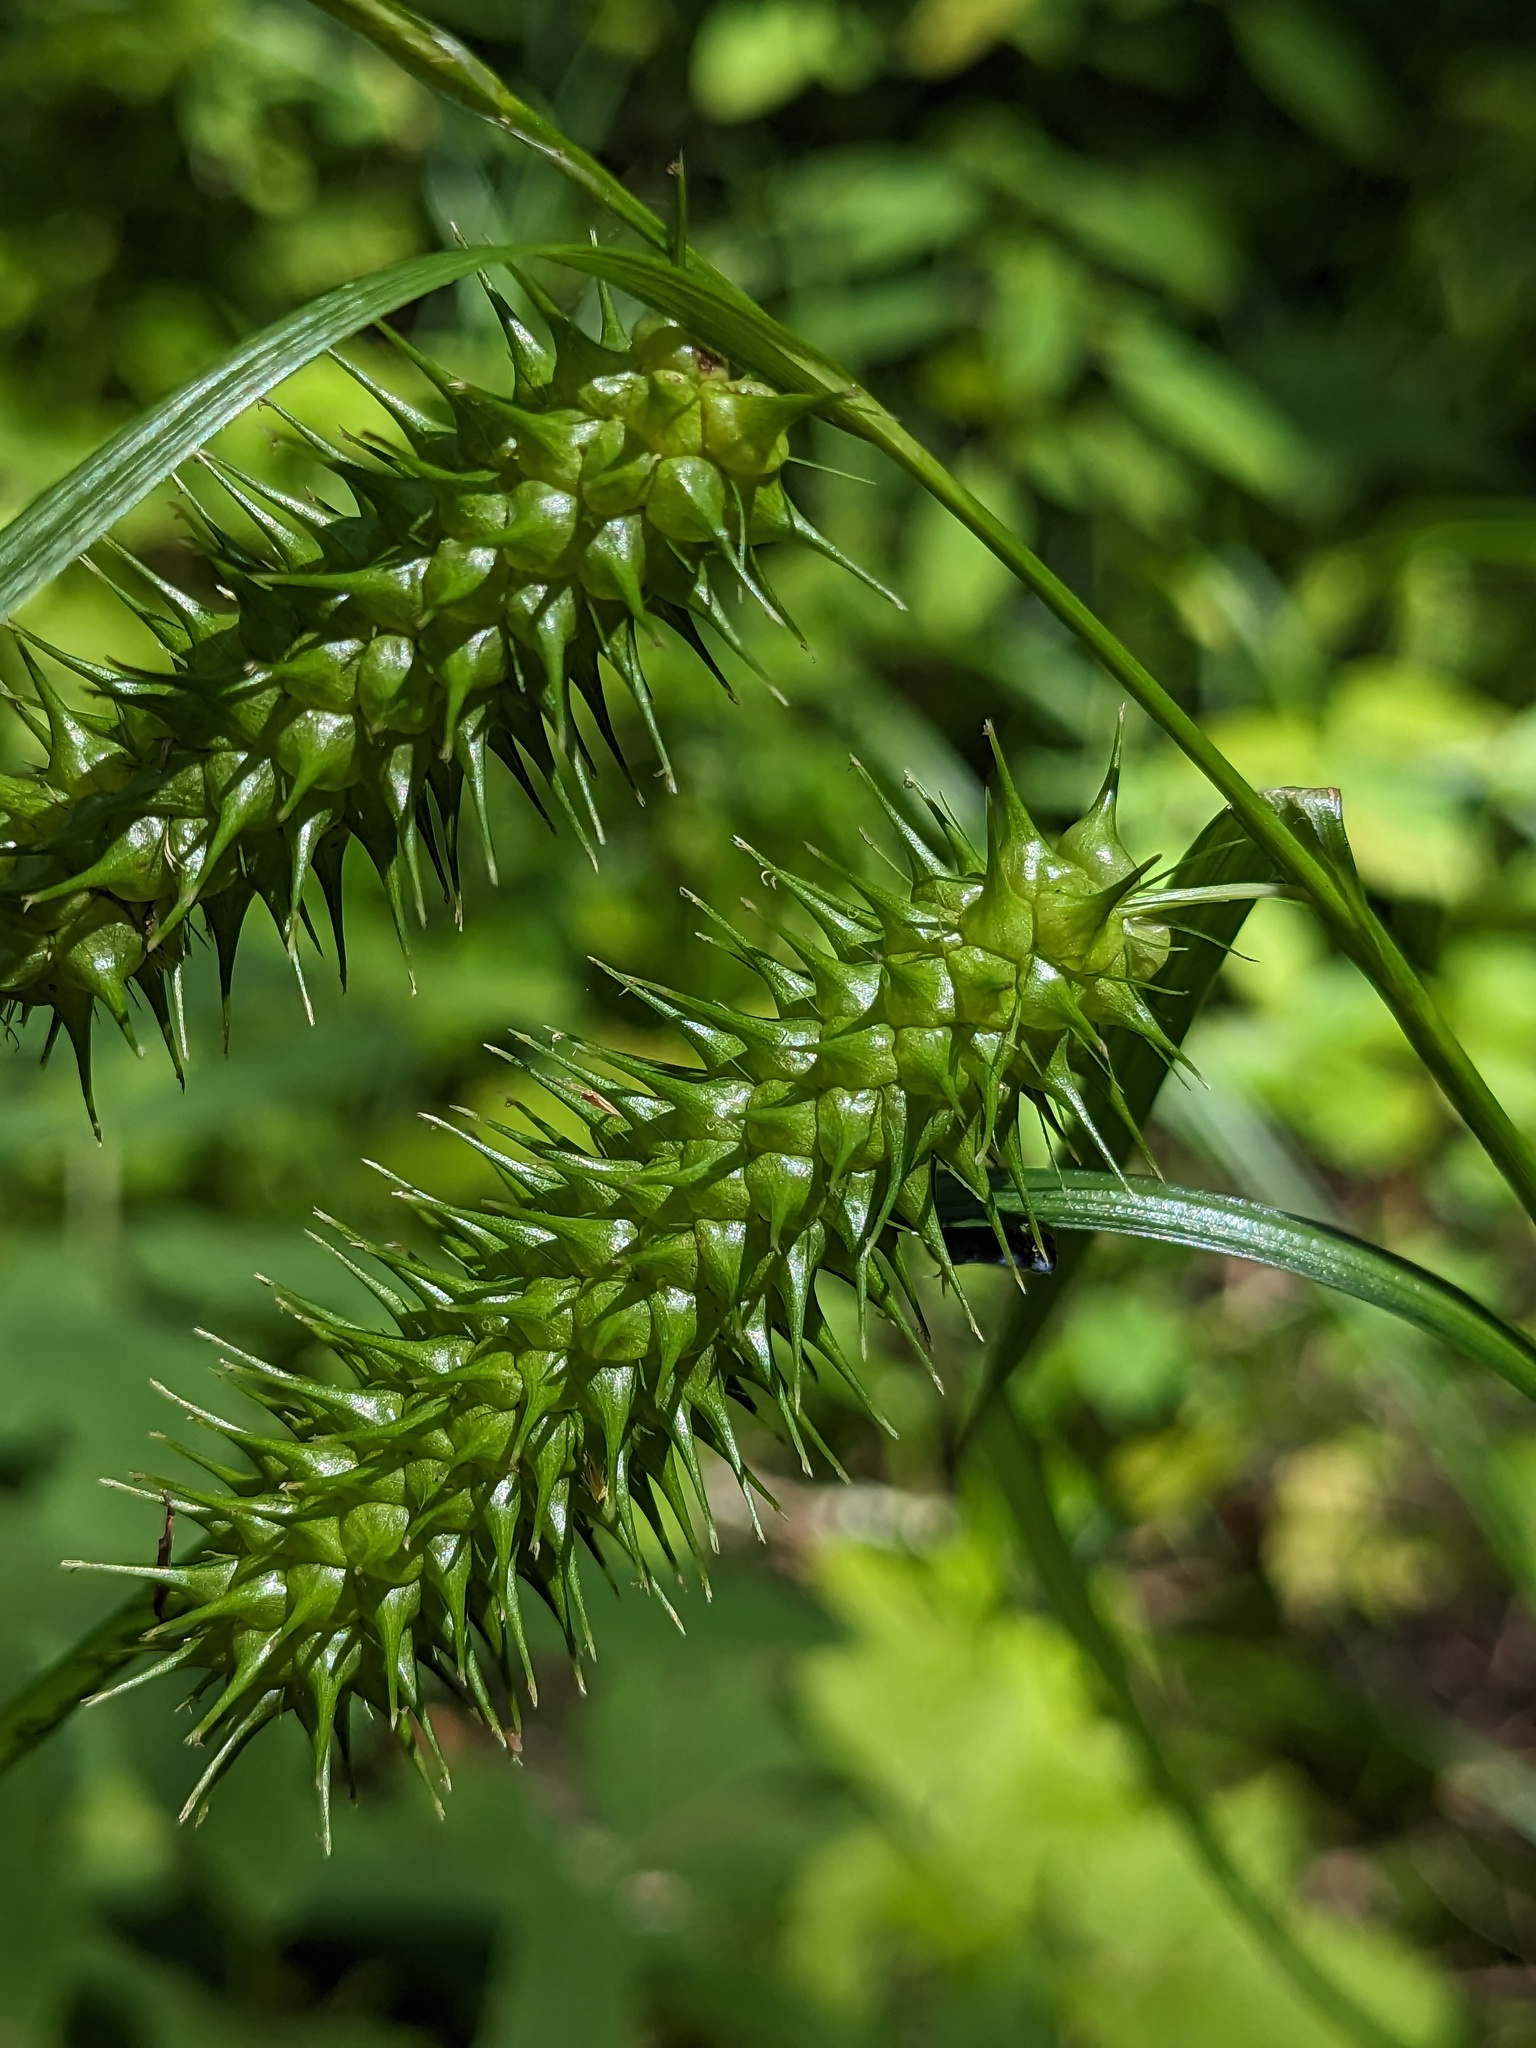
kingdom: Plantae
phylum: Tracheophyta
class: Liliopsida
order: Poales
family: Cyperaceae
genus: Carex
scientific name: Carex lurida
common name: Sallow sedge
